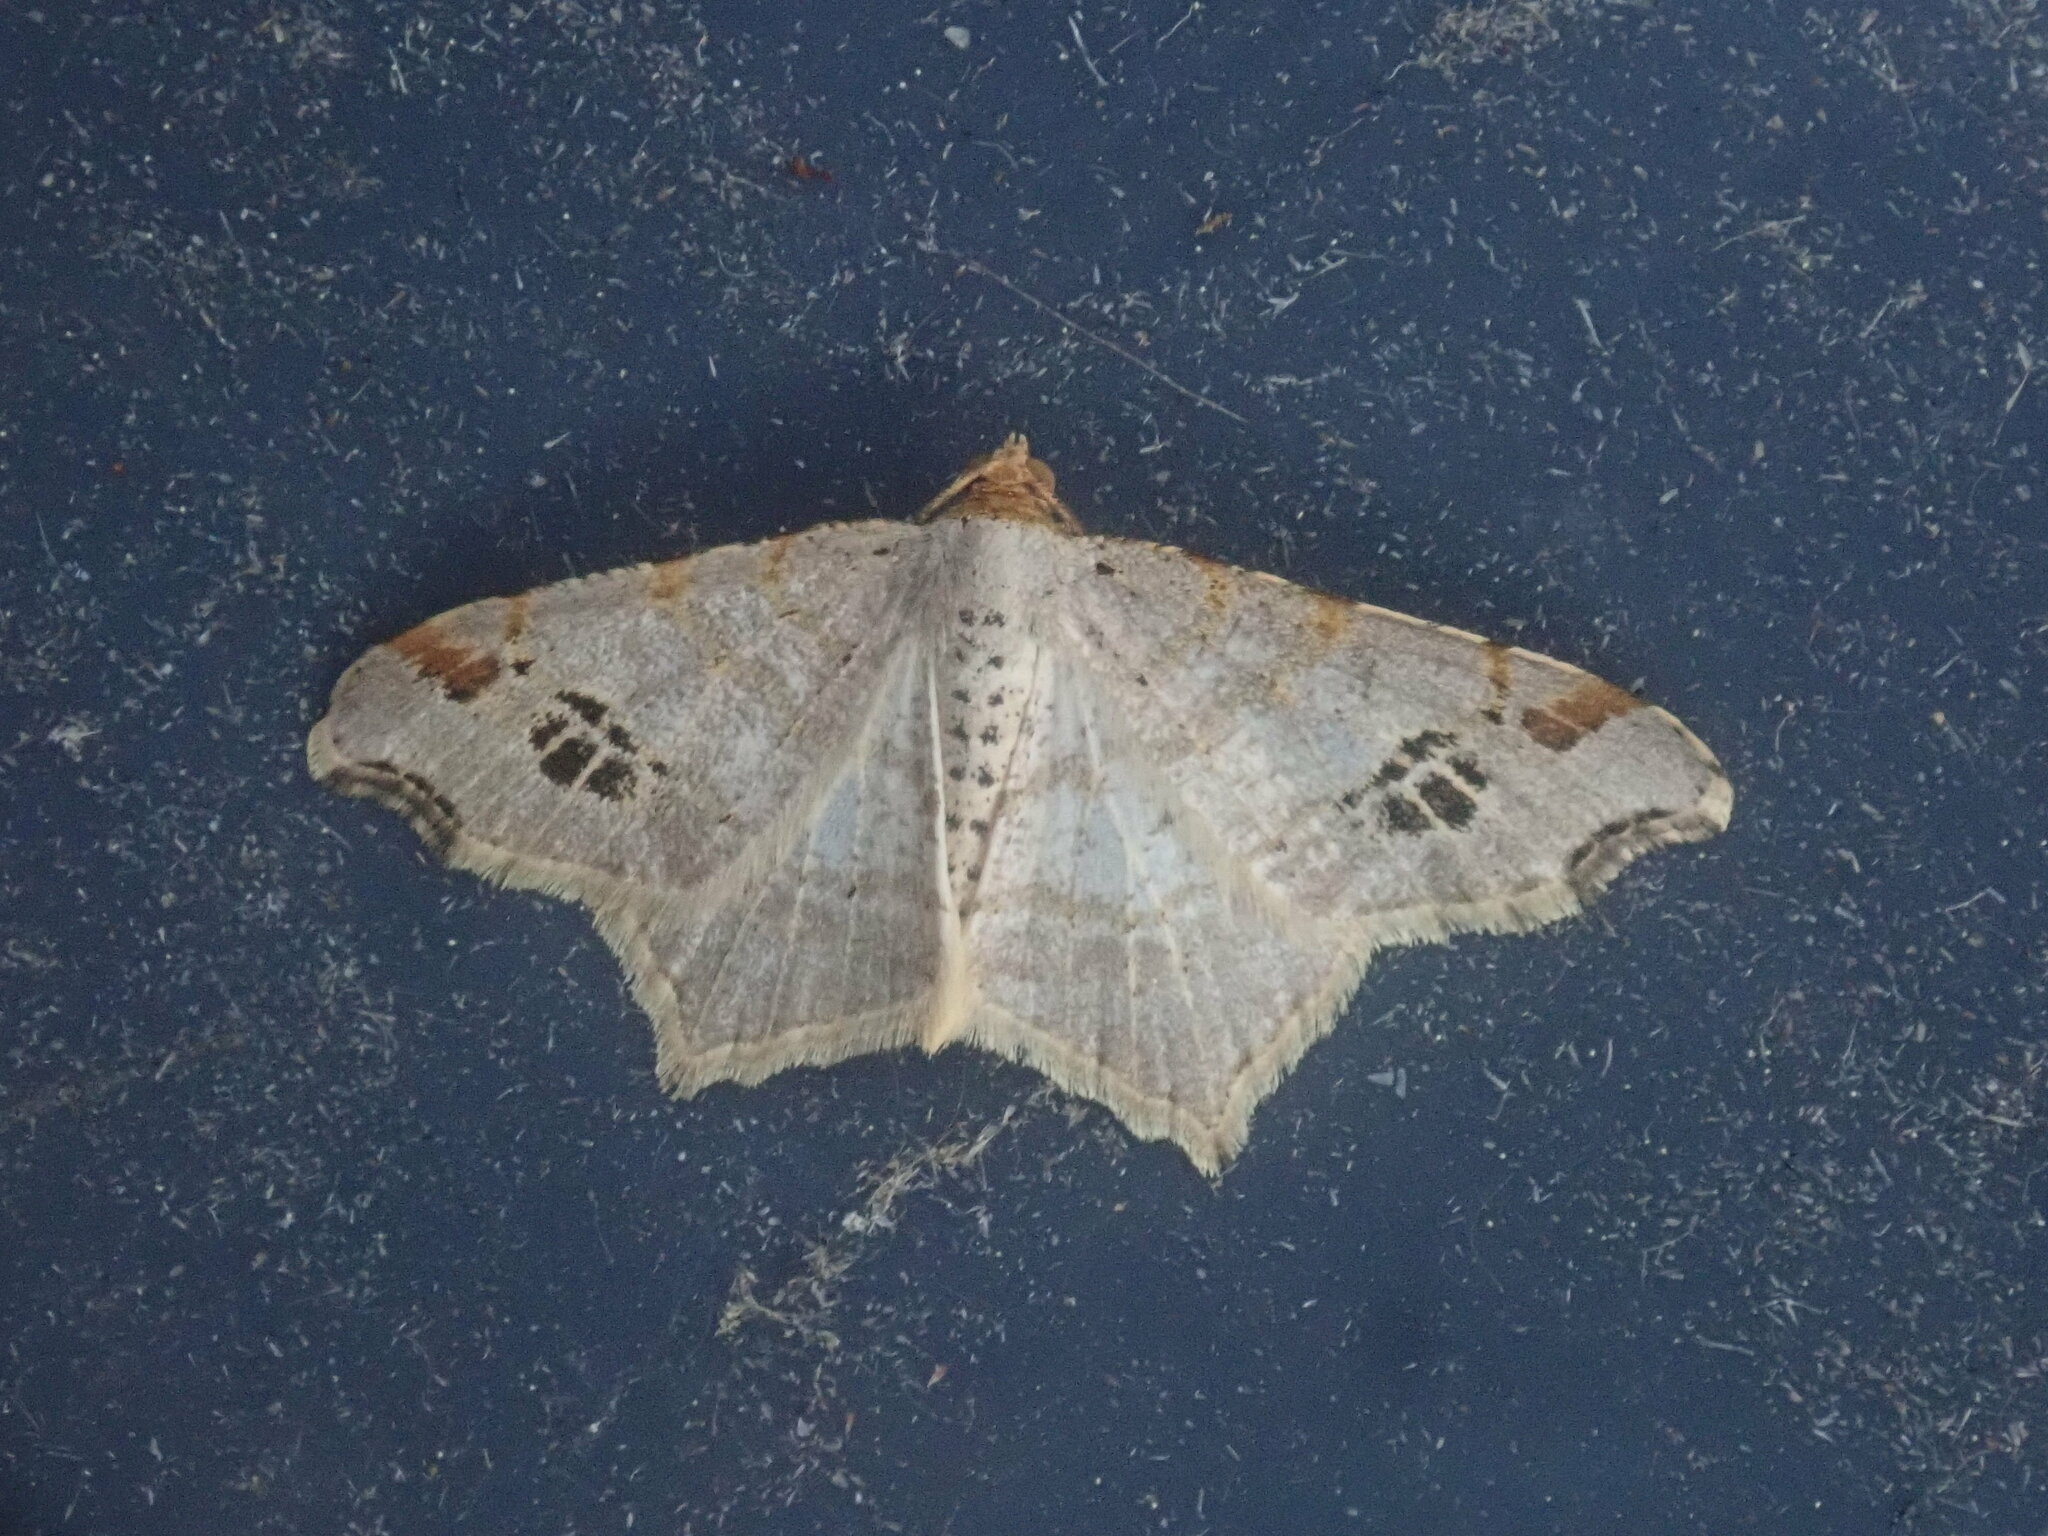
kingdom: Animalia
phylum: Arthropoda
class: Insecta
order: Lepidoptera
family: Geometridae
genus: Macaria
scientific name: Macaria aemulataria
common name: Common angle
